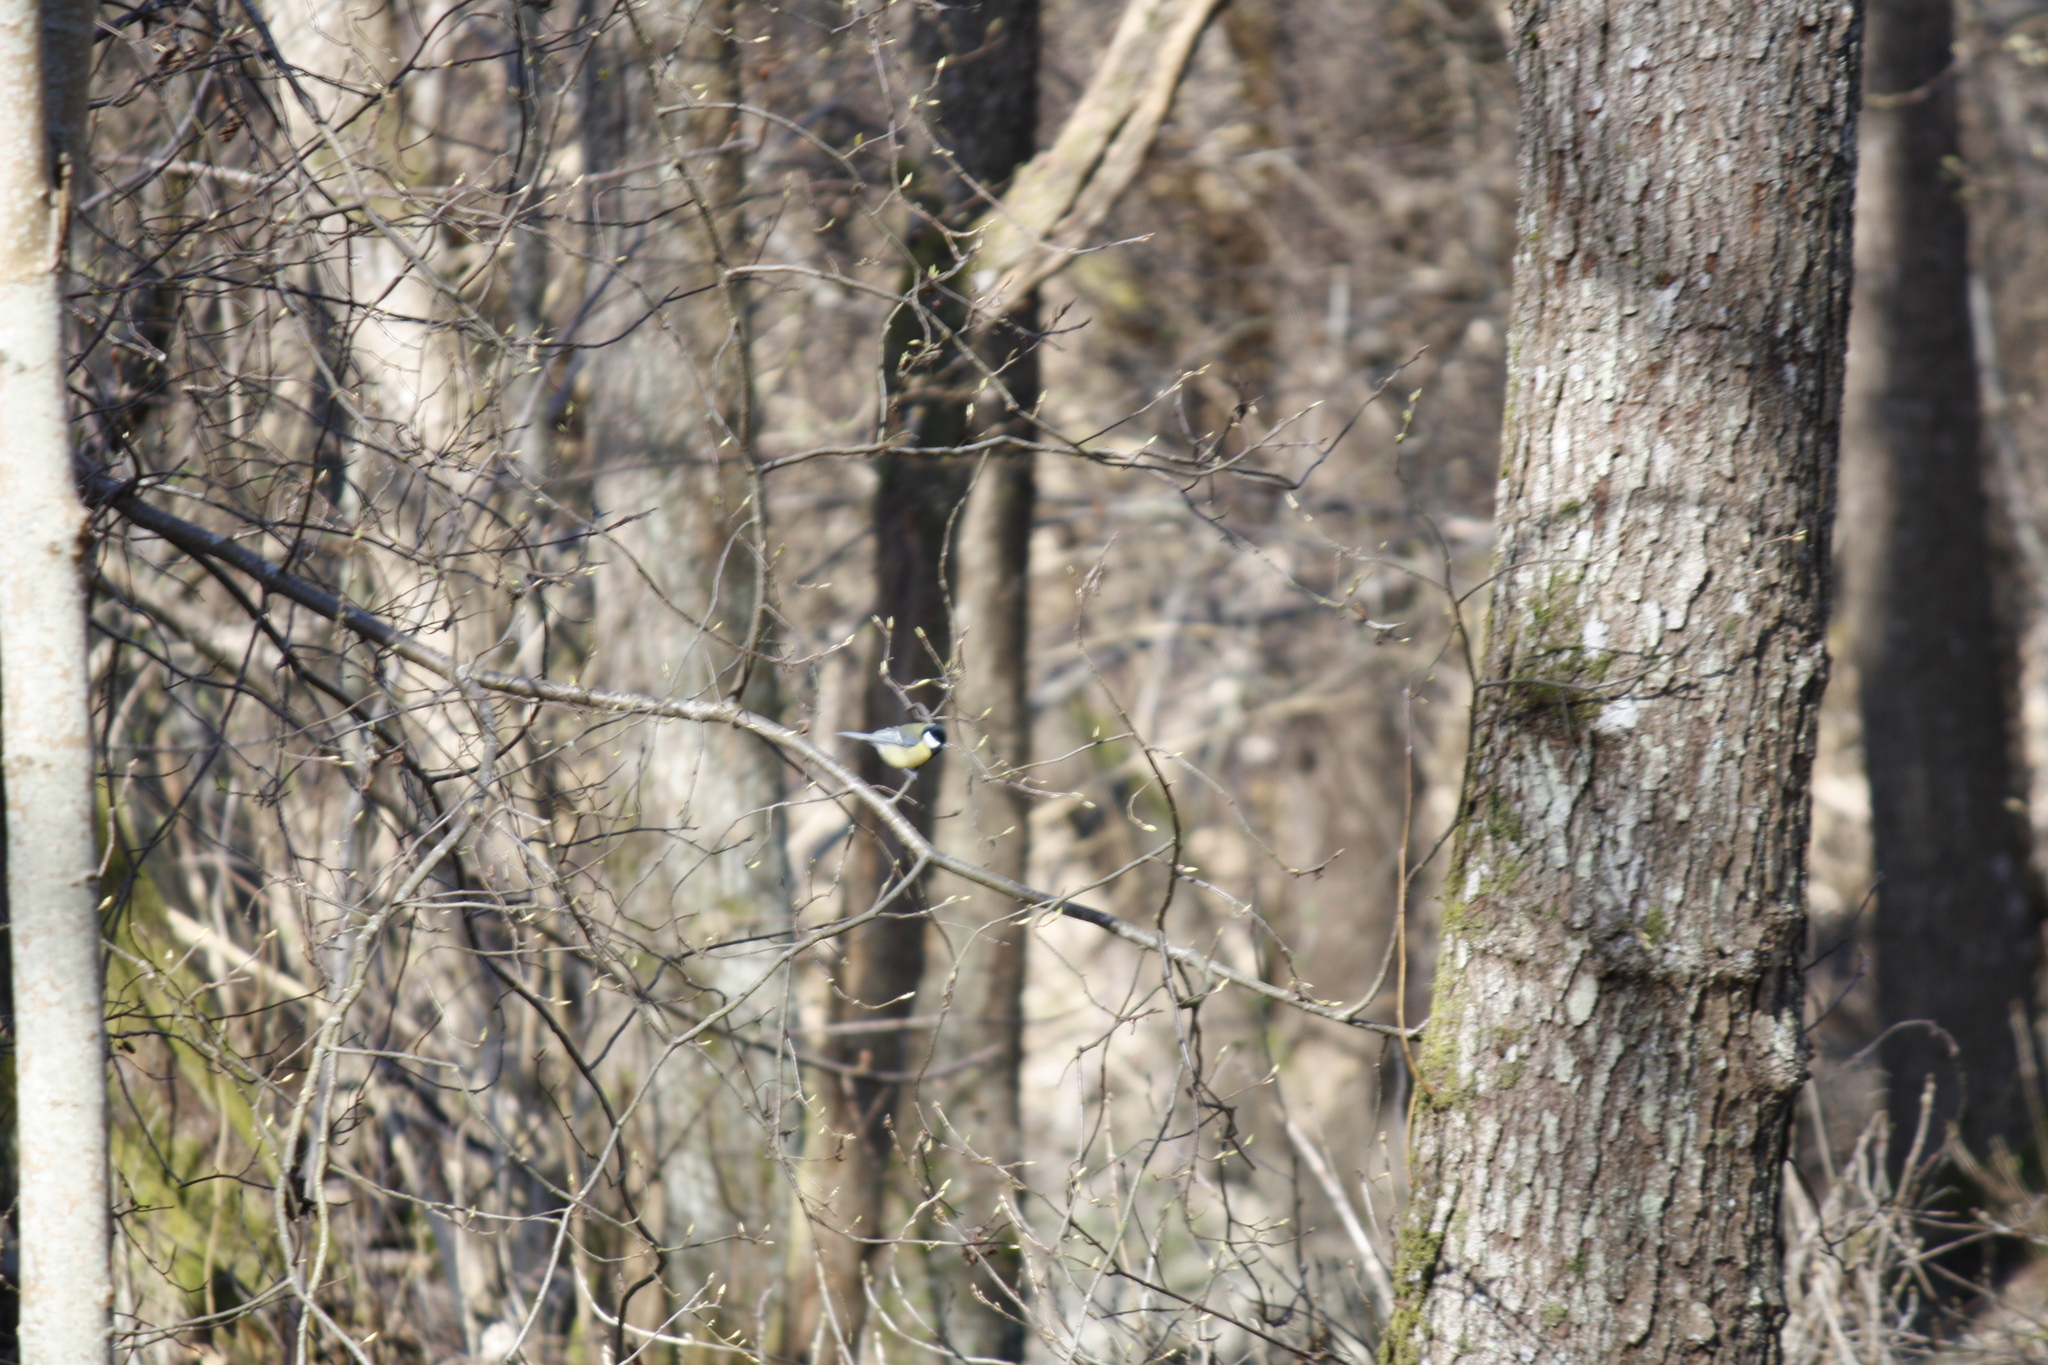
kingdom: Animalia
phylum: Chordata
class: Aves
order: Passeriformes
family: Paridae
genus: Parus
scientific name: Parus major
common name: Great tit
